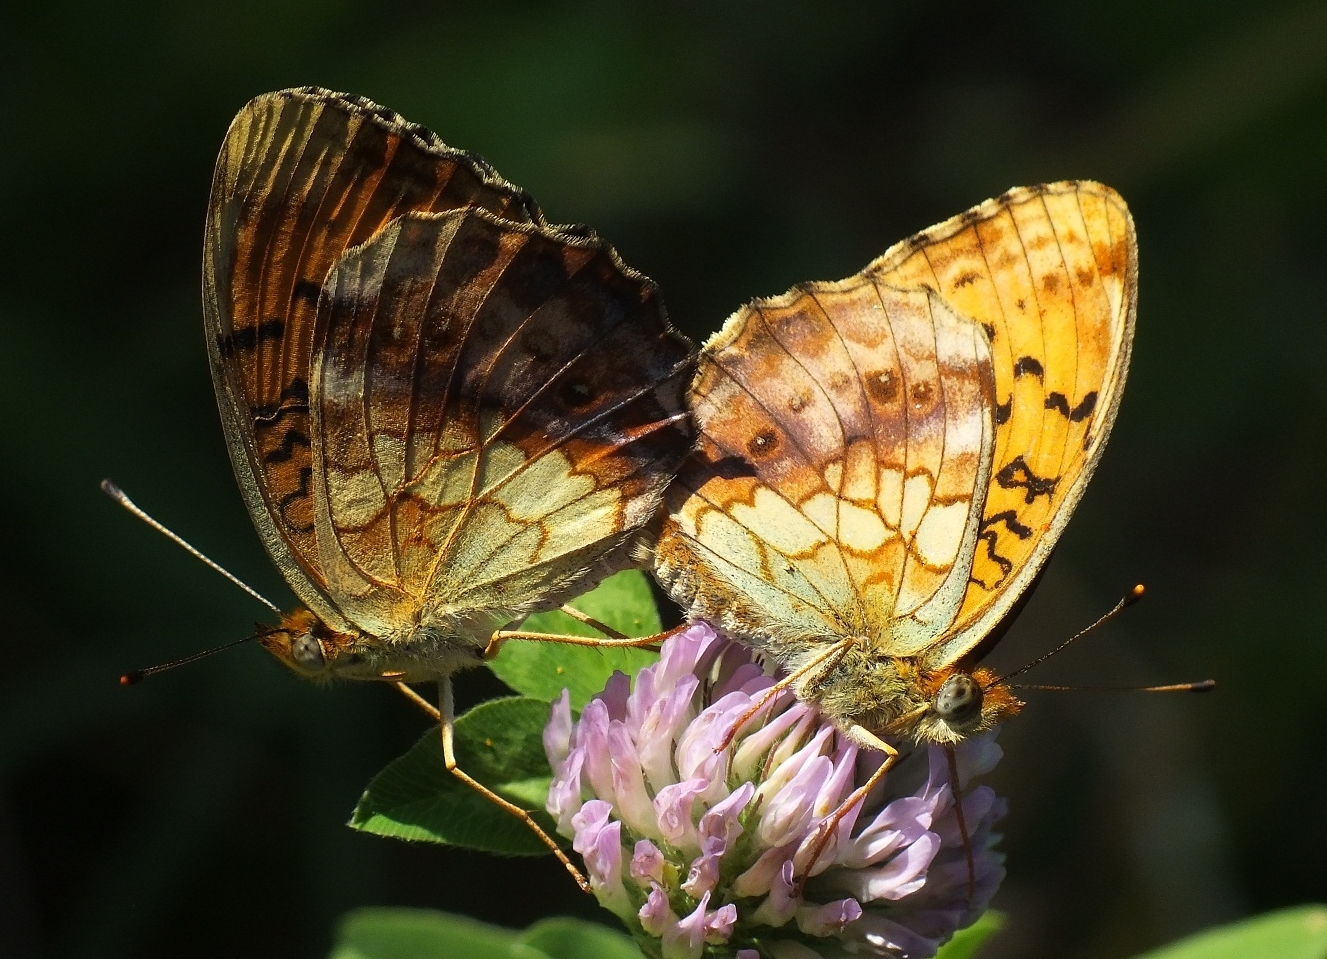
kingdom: Animalia
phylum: Arthropoda
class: Insecta
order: Lepidoptera
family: Nymphalidae
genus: Brenthis
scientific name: Brenthis daphne
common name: Marbled fritillary
